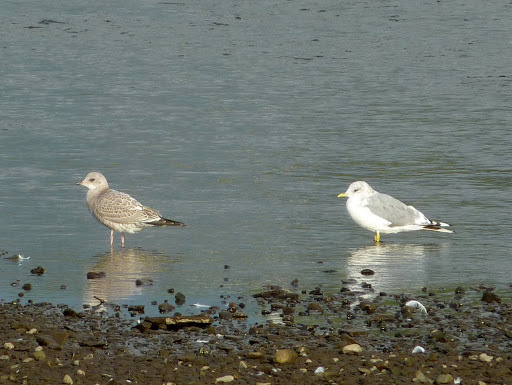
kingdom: Animalia
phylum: Chordata
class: Aves
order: Charadriiformes
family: Laridae
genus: Larus
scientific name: Larus brachyrhynchus
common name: Short-billed gull
